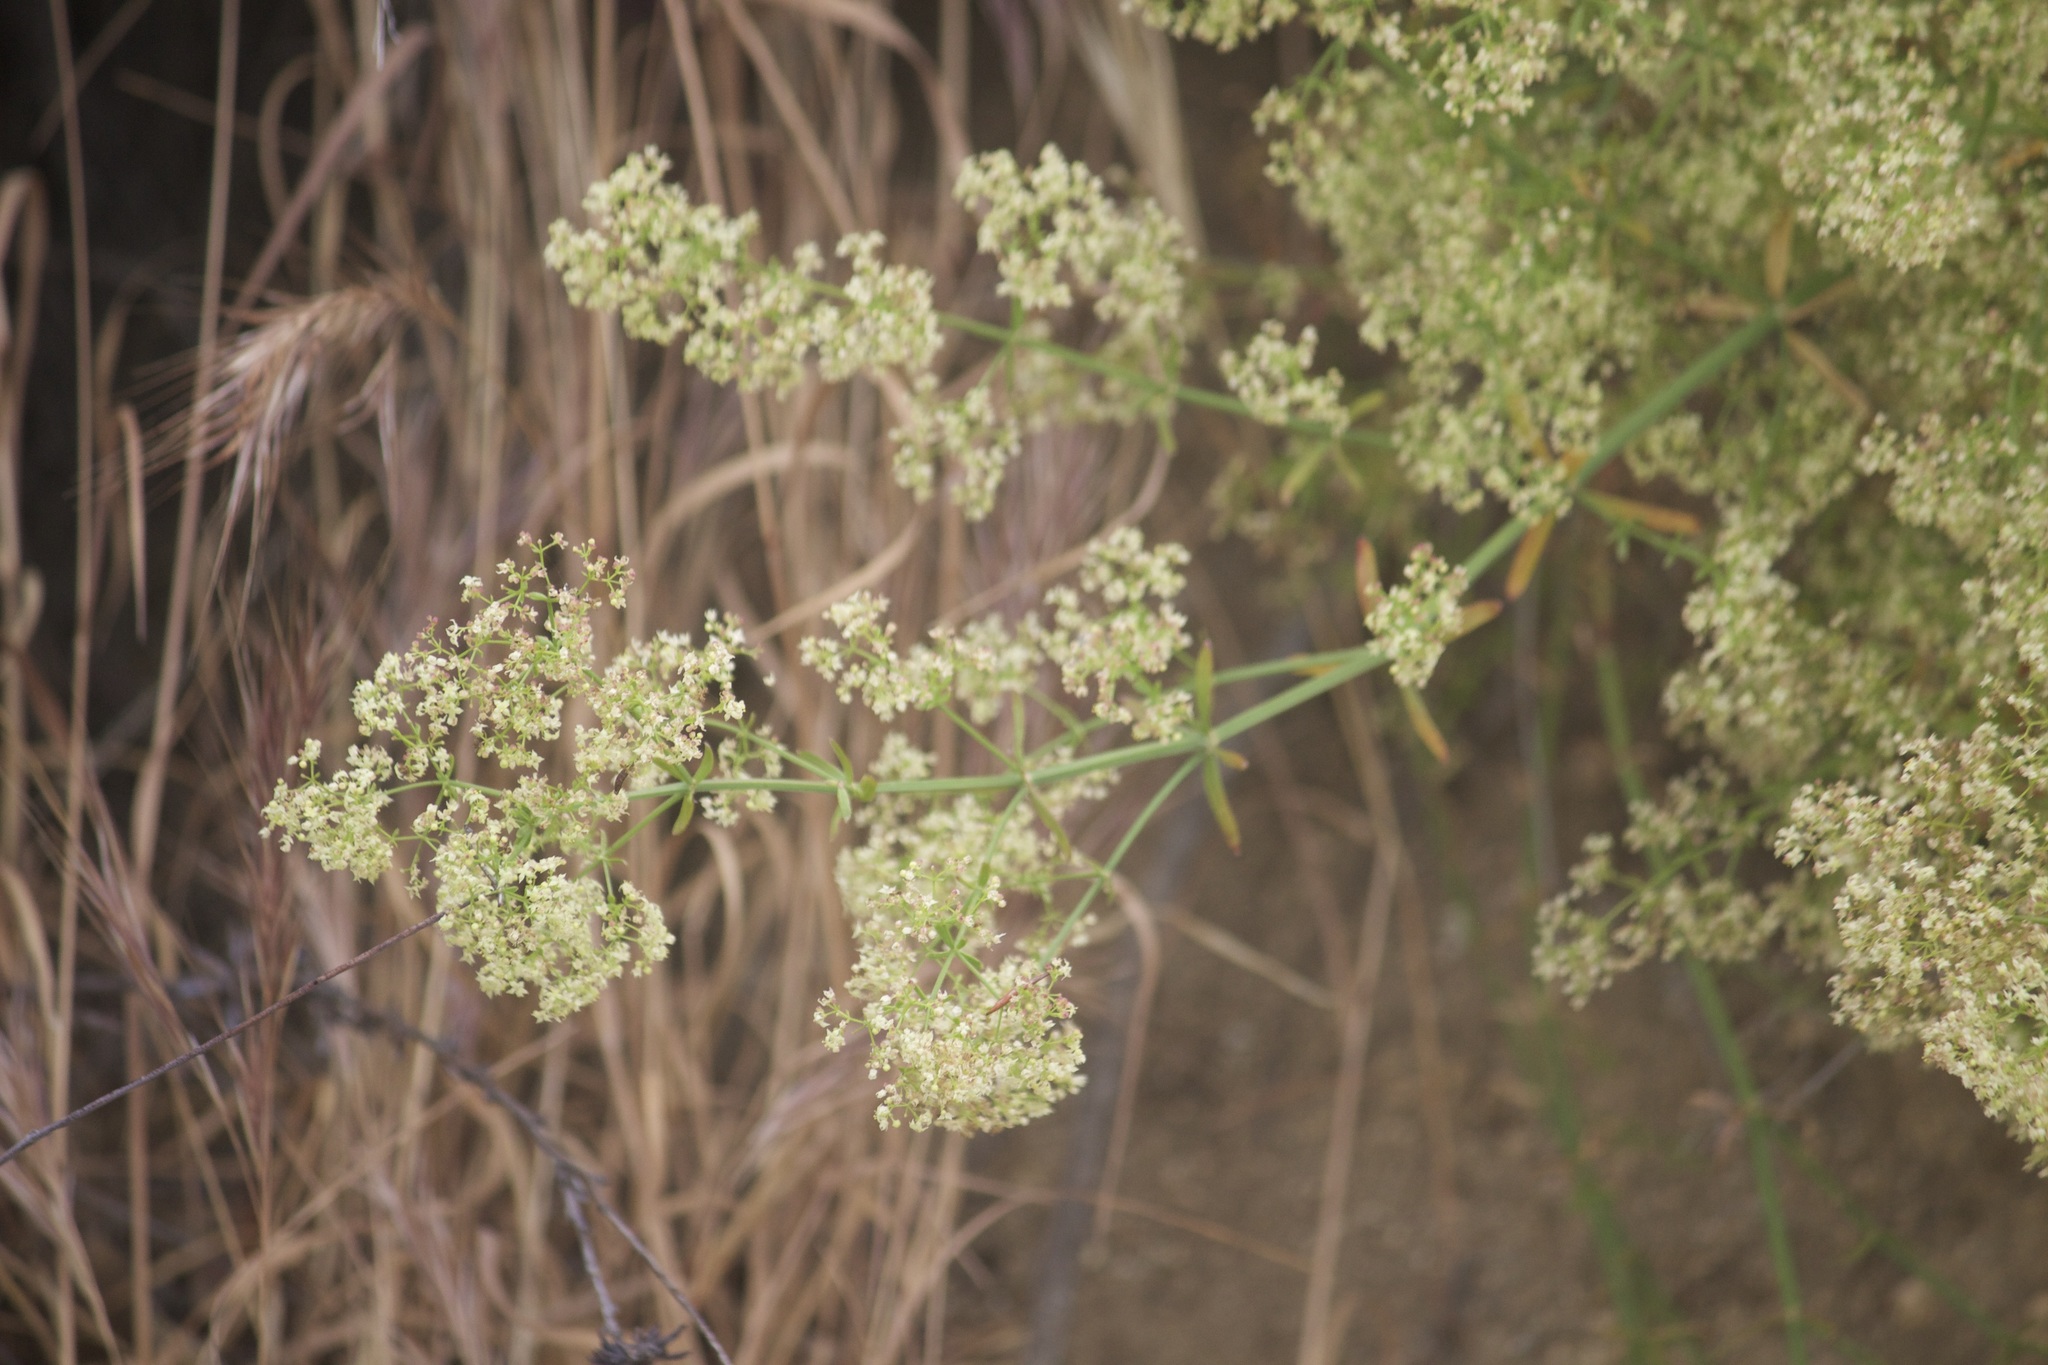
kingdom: Plantae
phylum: Tracheophyta
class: Magnoliopsida
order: Gentianales
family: Rubiaceae
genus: Galium
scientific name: Galium angustifolium
